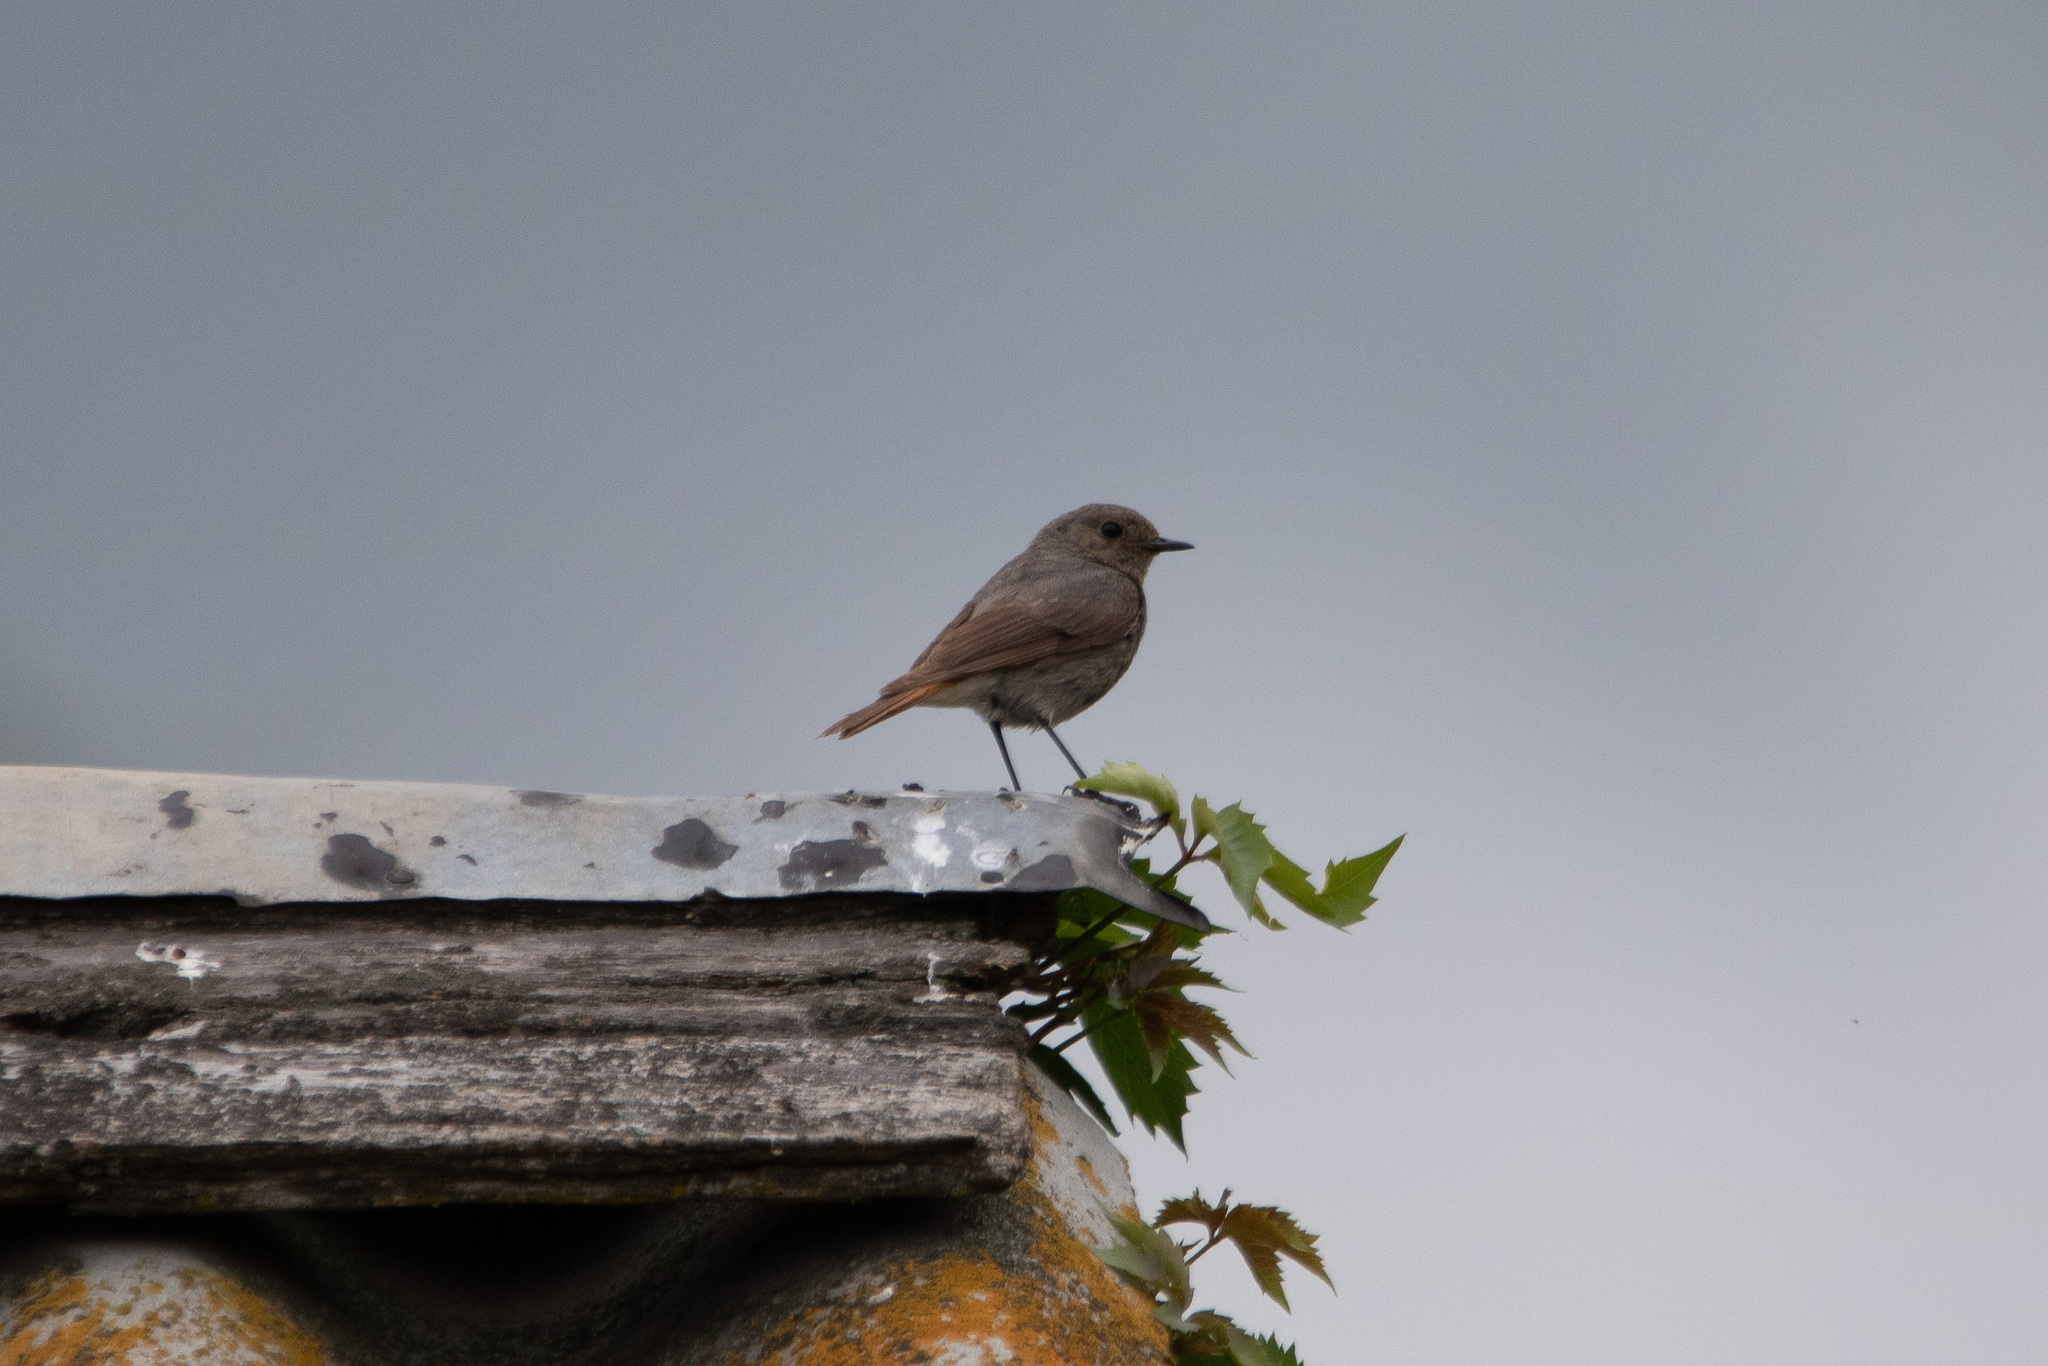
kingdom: Animalia
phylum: Chordata
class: Aves
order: Passeriformes
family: Muscicapidae
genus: Phoenicurus
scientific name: Phoenicurus ochruros
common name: Black redstart
